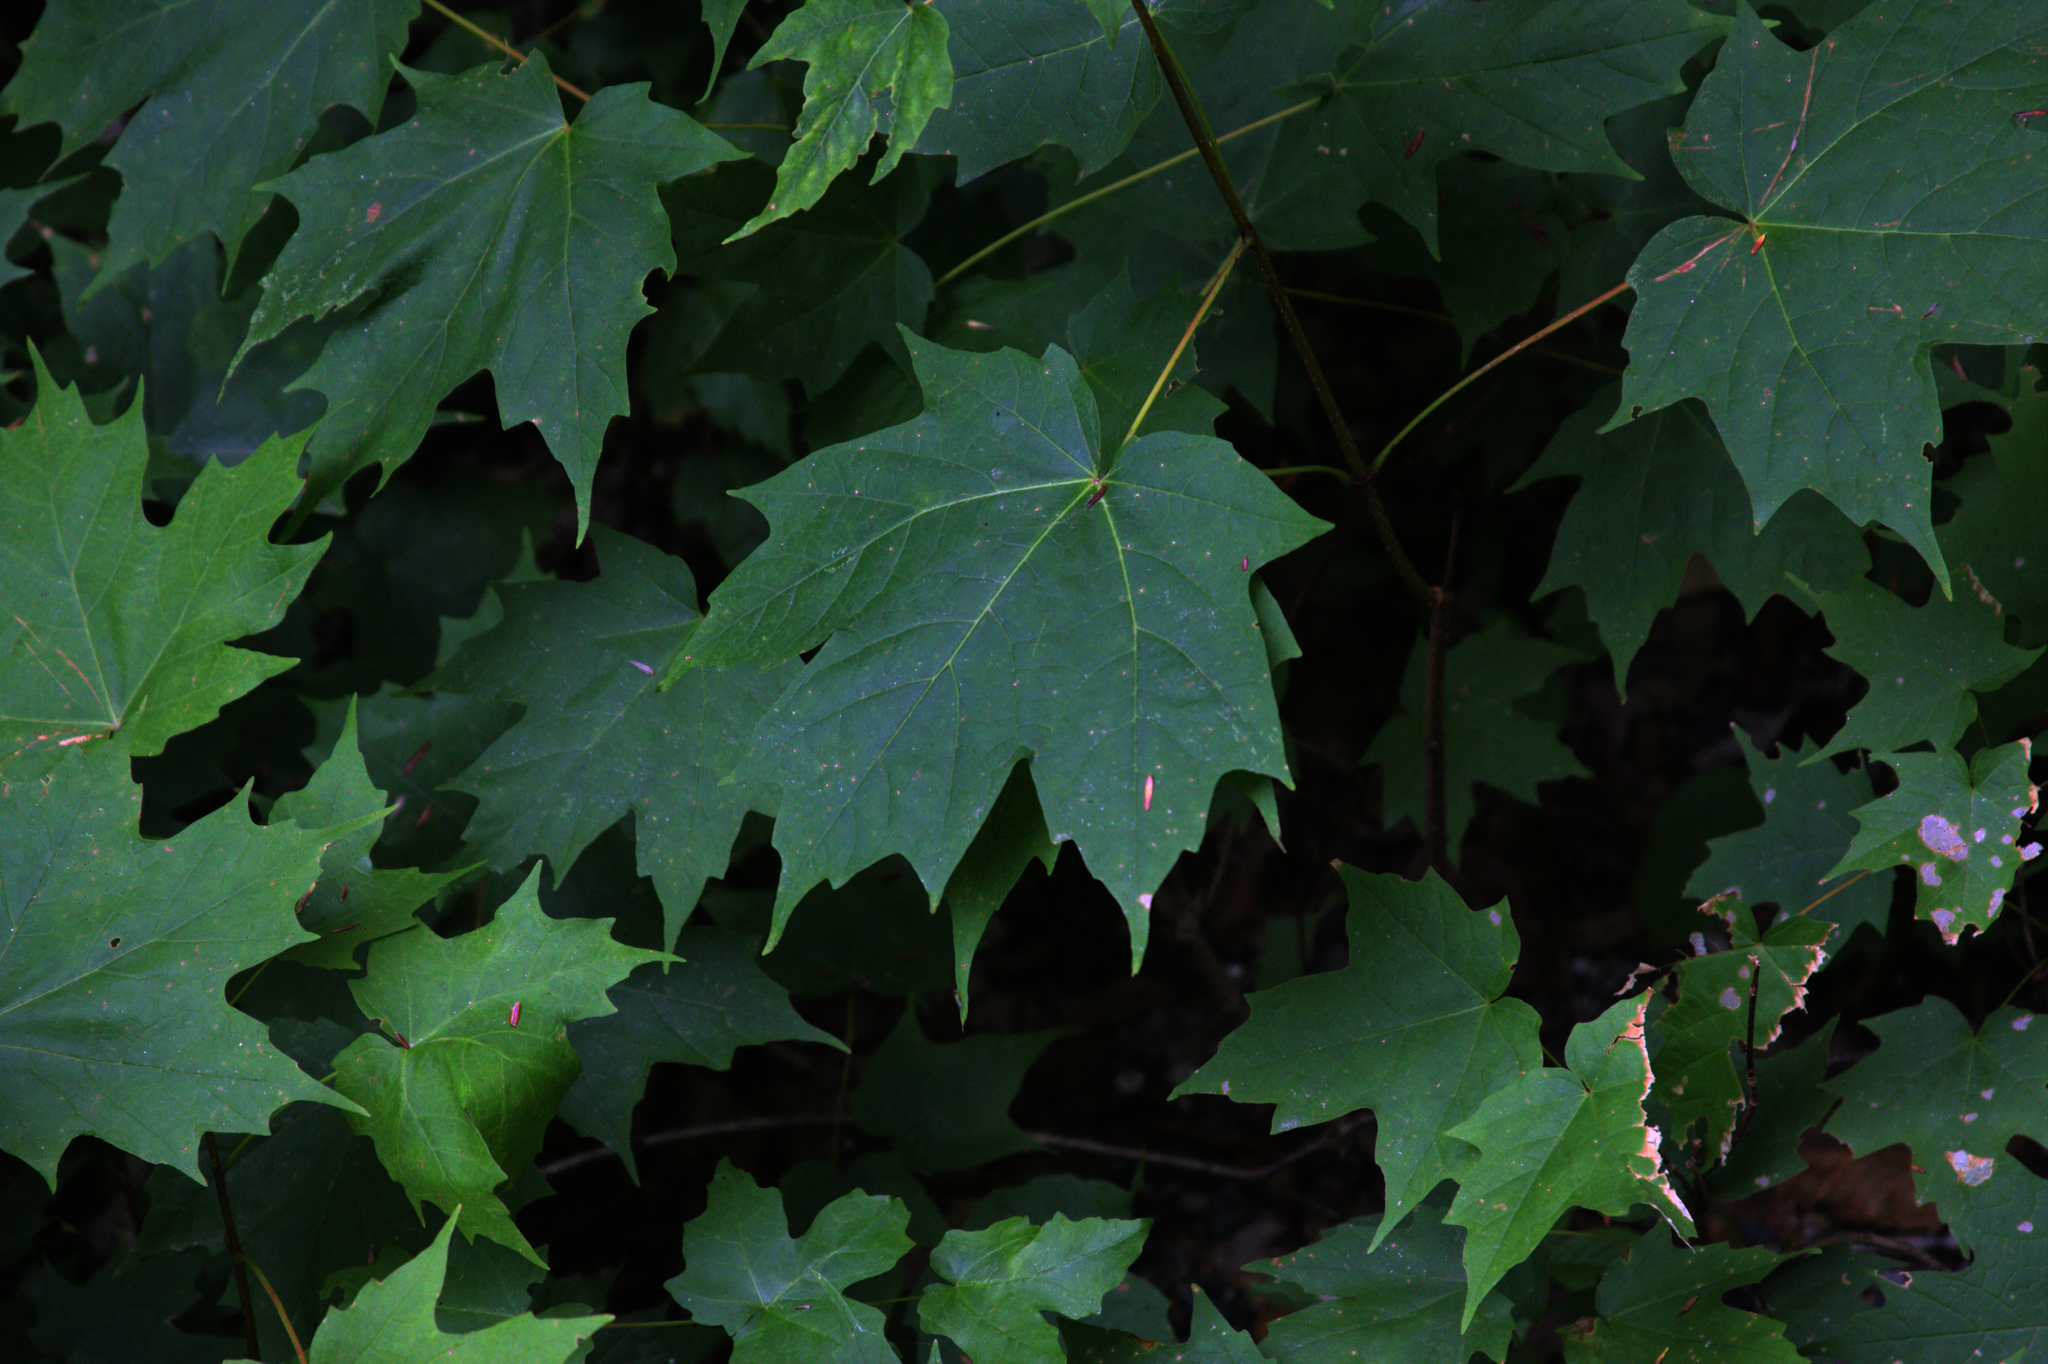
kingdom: Plantae
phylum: Tracheophyta
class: Magnoliopsida
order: Sapindales
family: Sapindaceae
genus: Acer
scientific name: Acer saccharum
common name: Sugar maple
